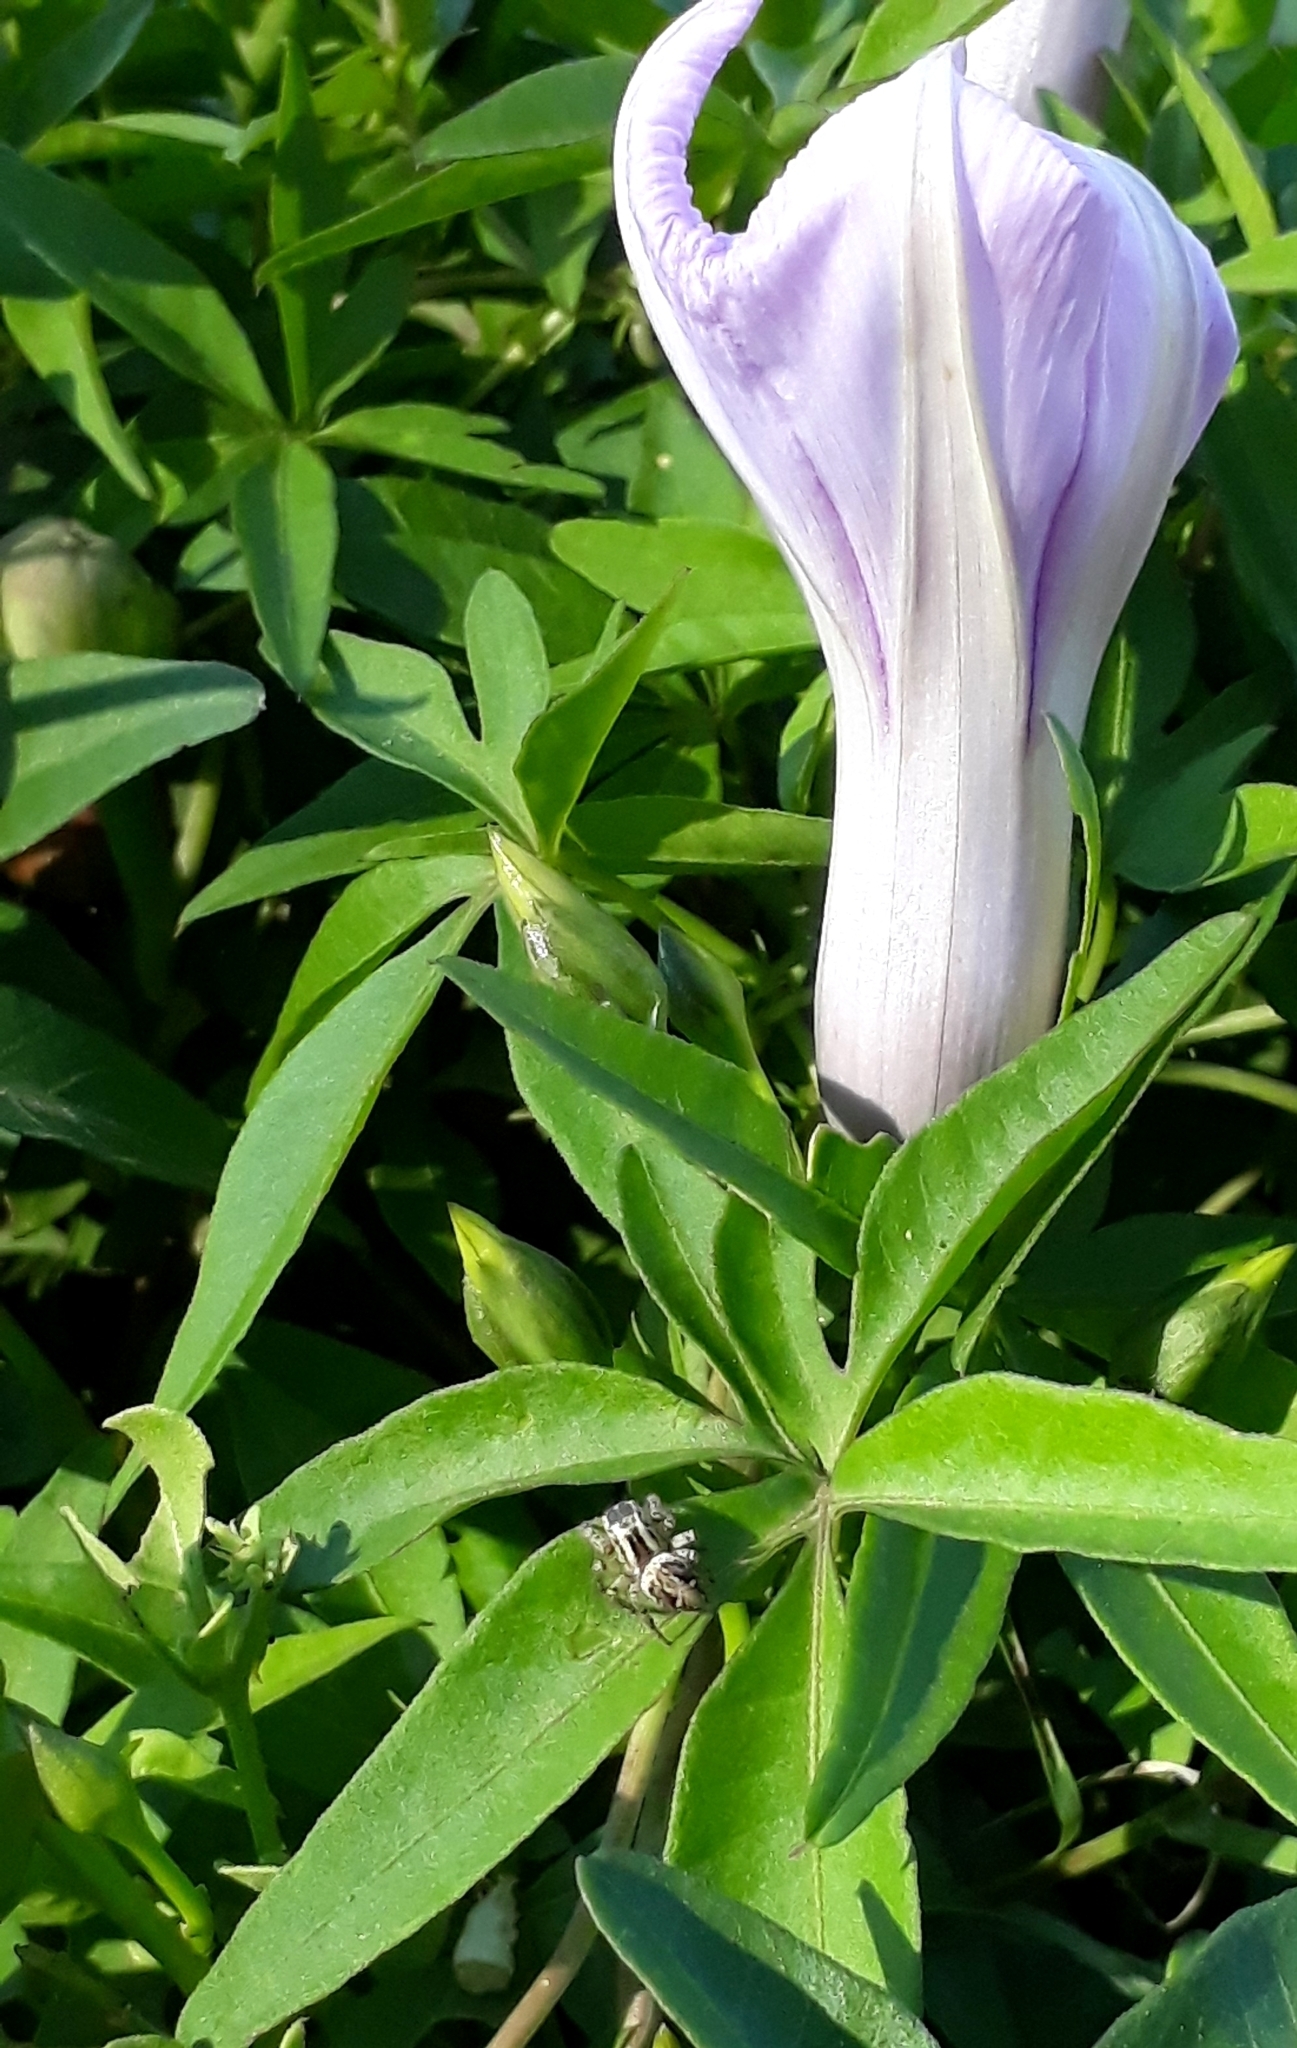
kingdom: Animalia
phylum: Arthropoda
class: Arachnida
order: Araneae
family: Salticidae
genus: Aphirape
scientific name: Aphirape
